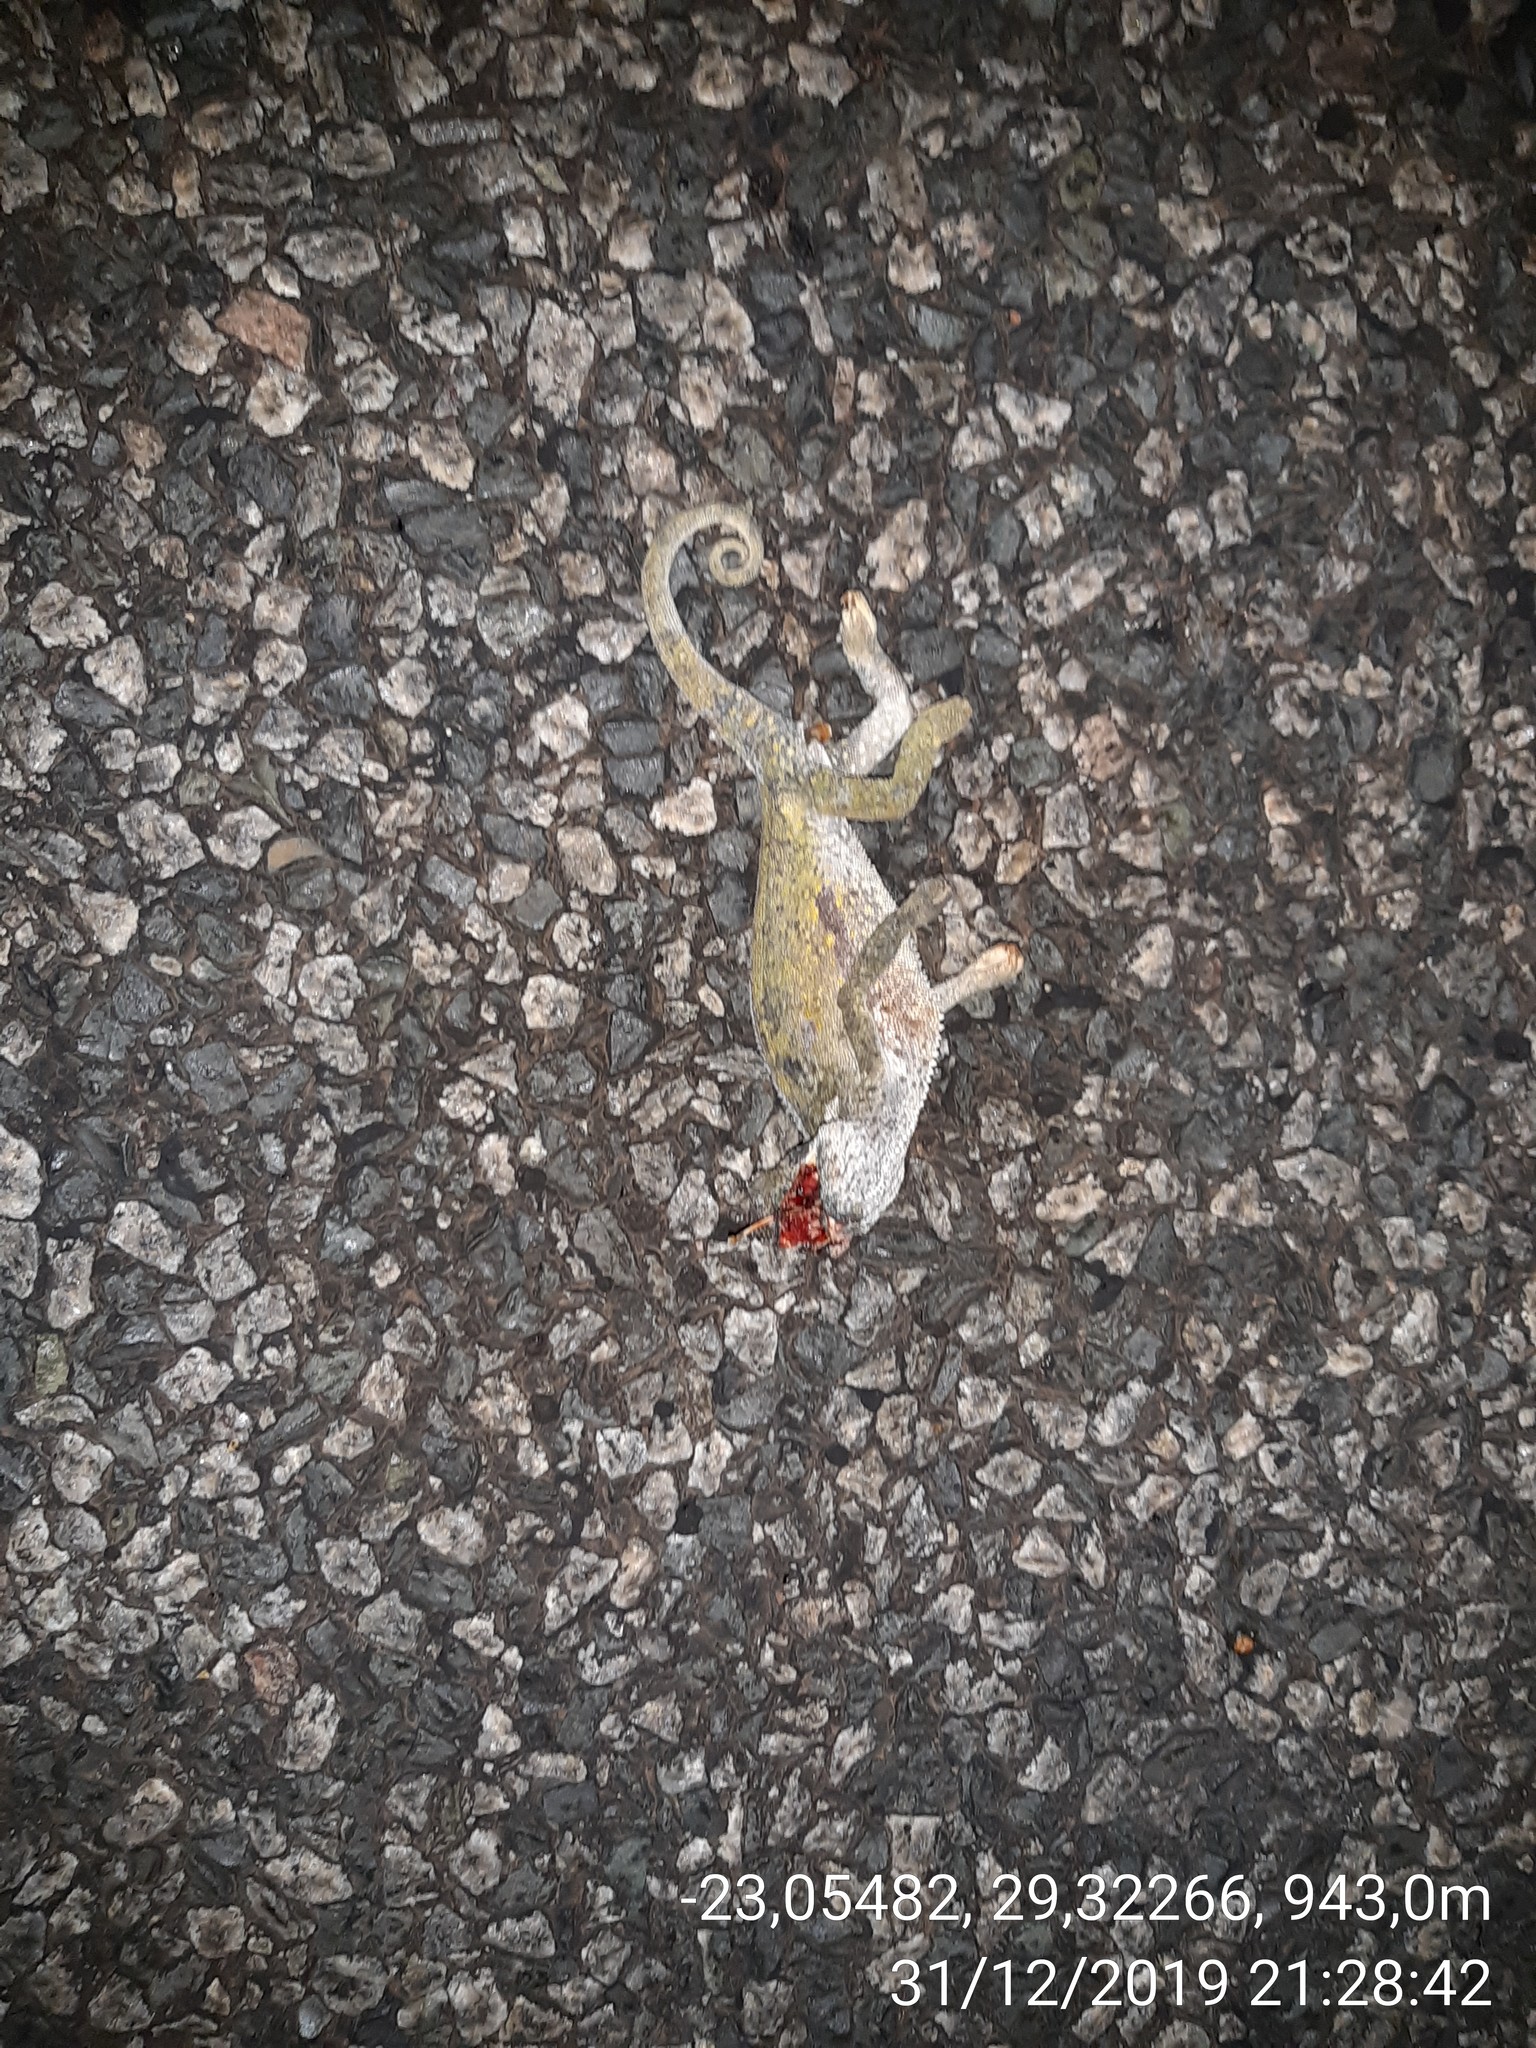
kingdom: Animalia
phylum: Chordata
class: Squamata
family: Chamaeleonidae
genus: Chamaeleo
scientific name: Chamaeleo dilepis
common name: Flapneck chameleon
